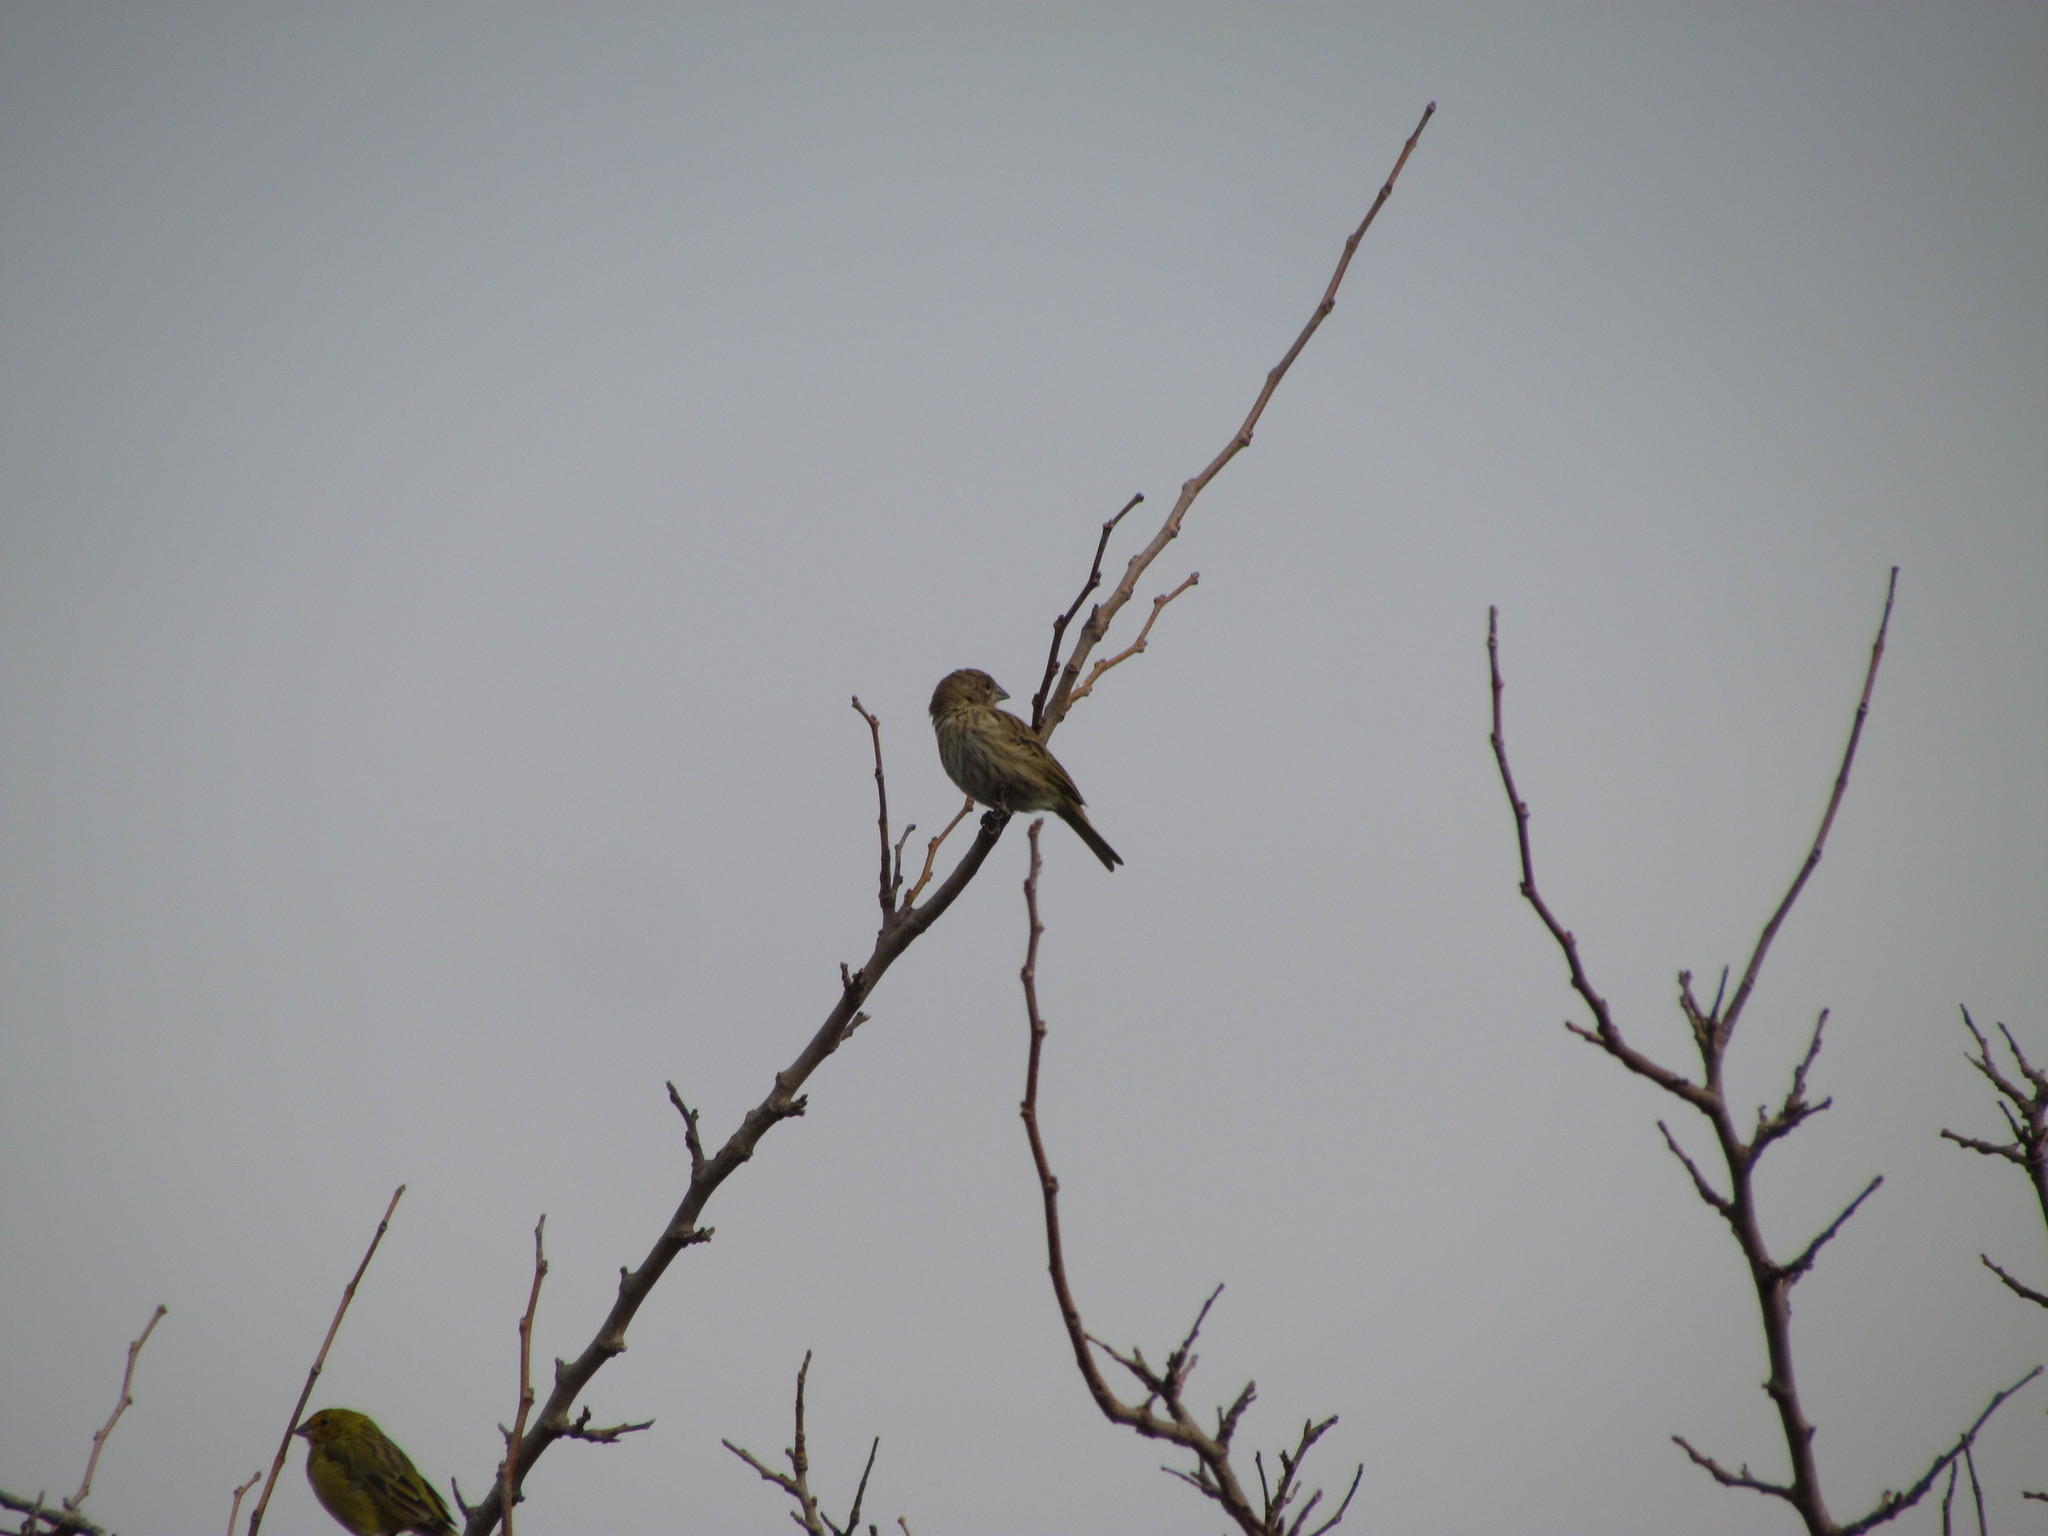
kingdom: Animalia
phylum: Chordata
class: Aves
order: Passeriformes
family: Thraupidae
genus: Sicalis
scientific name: Sicalis flaveola
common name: Saffron finch
